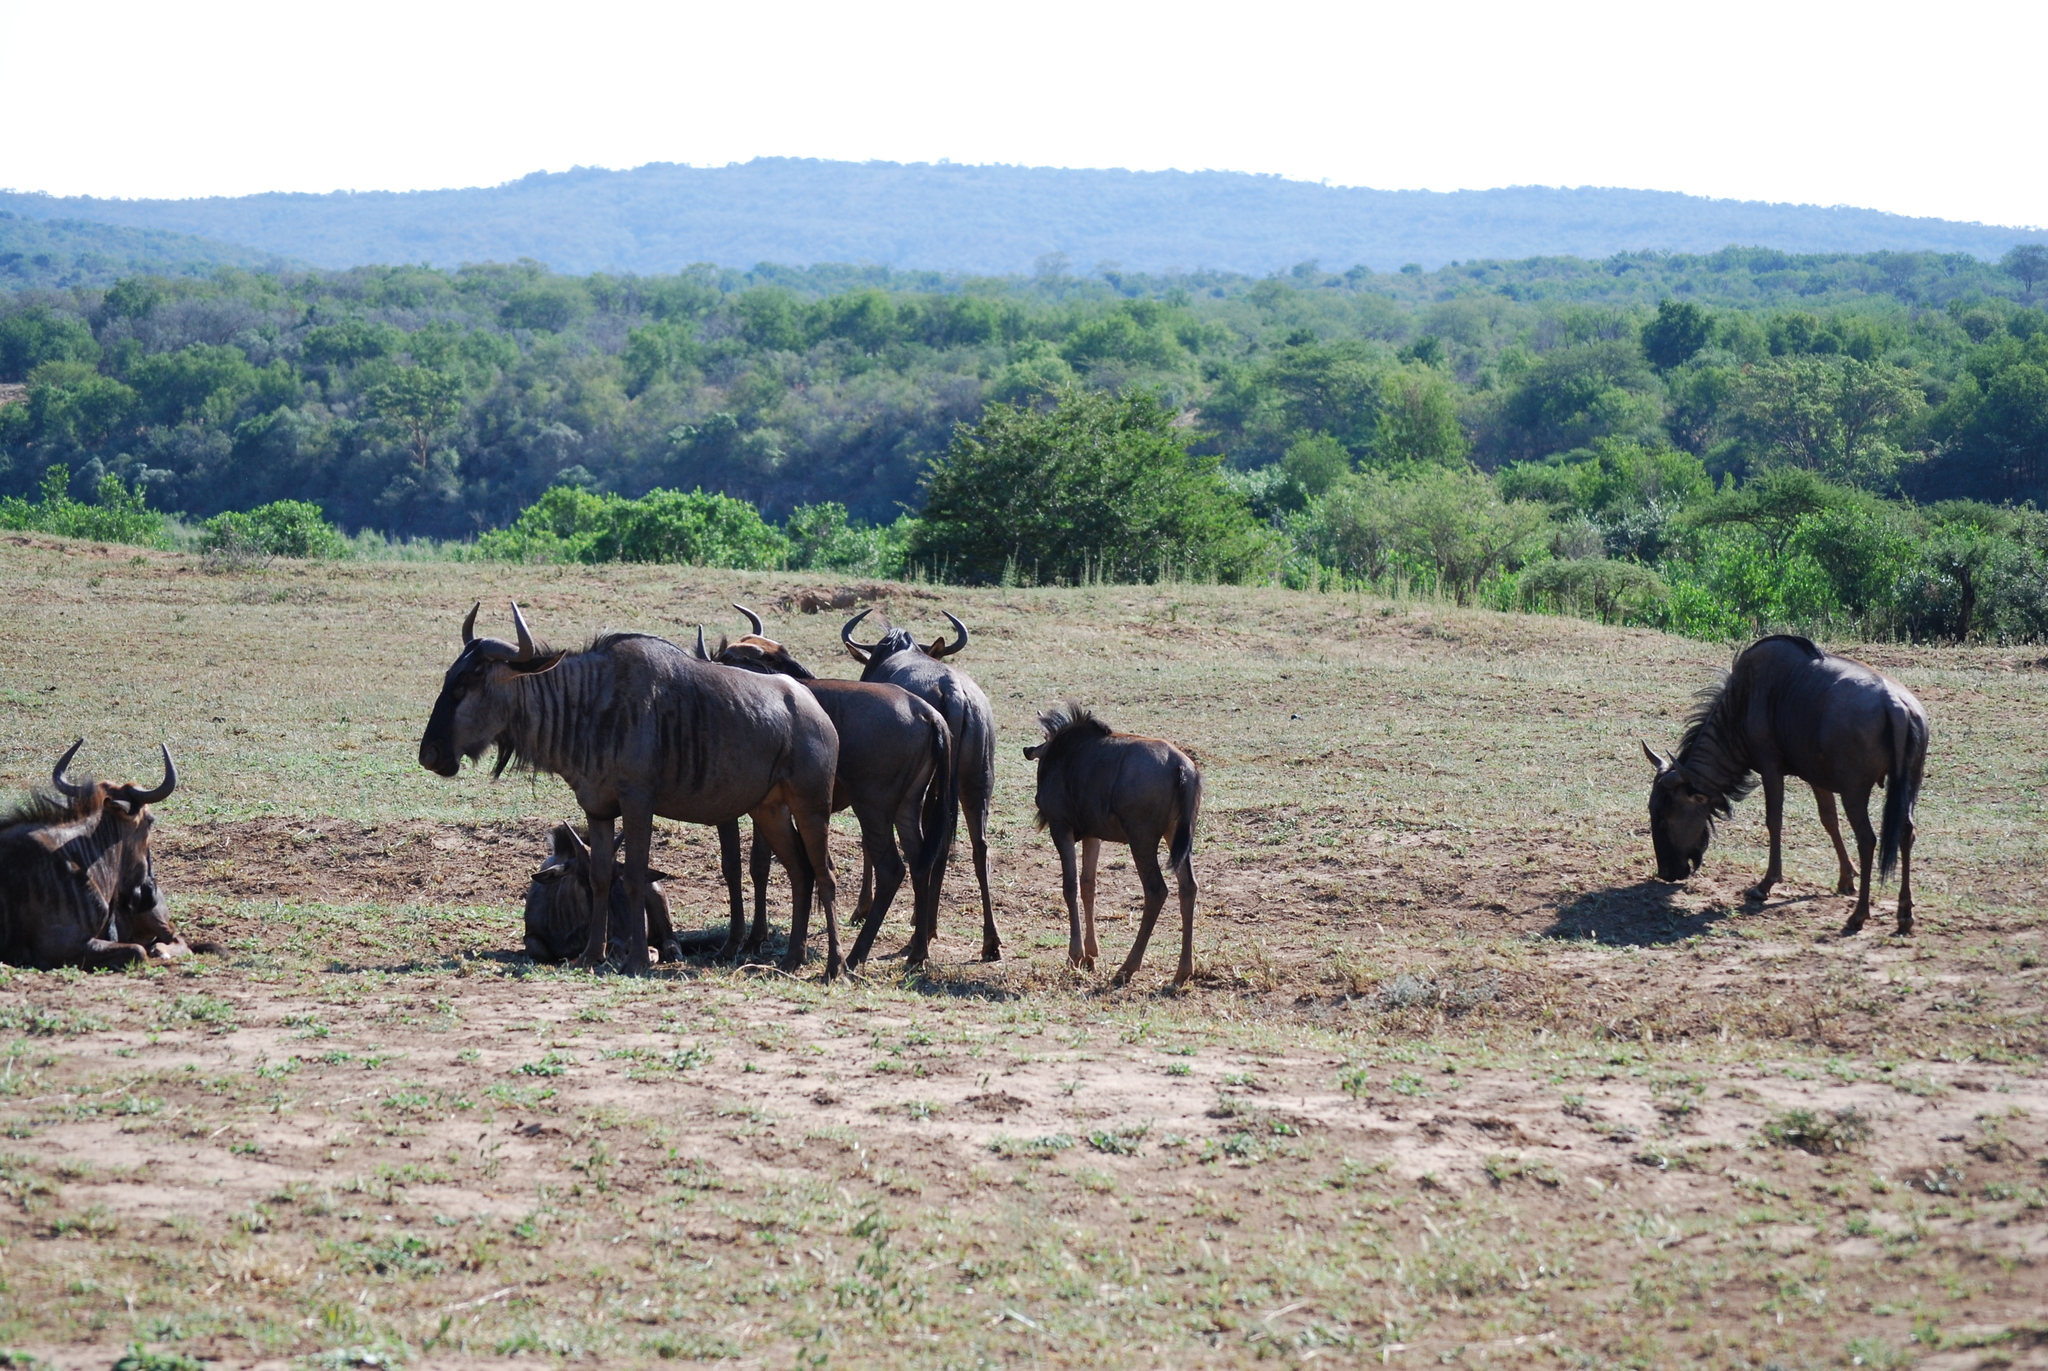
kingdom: Animalia
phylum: Chordata
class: Mammalia
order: Artiodactyla
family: Bovidae
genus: Connochaetes
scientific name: Connochaetes taurinus
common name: Blue wildebeest
